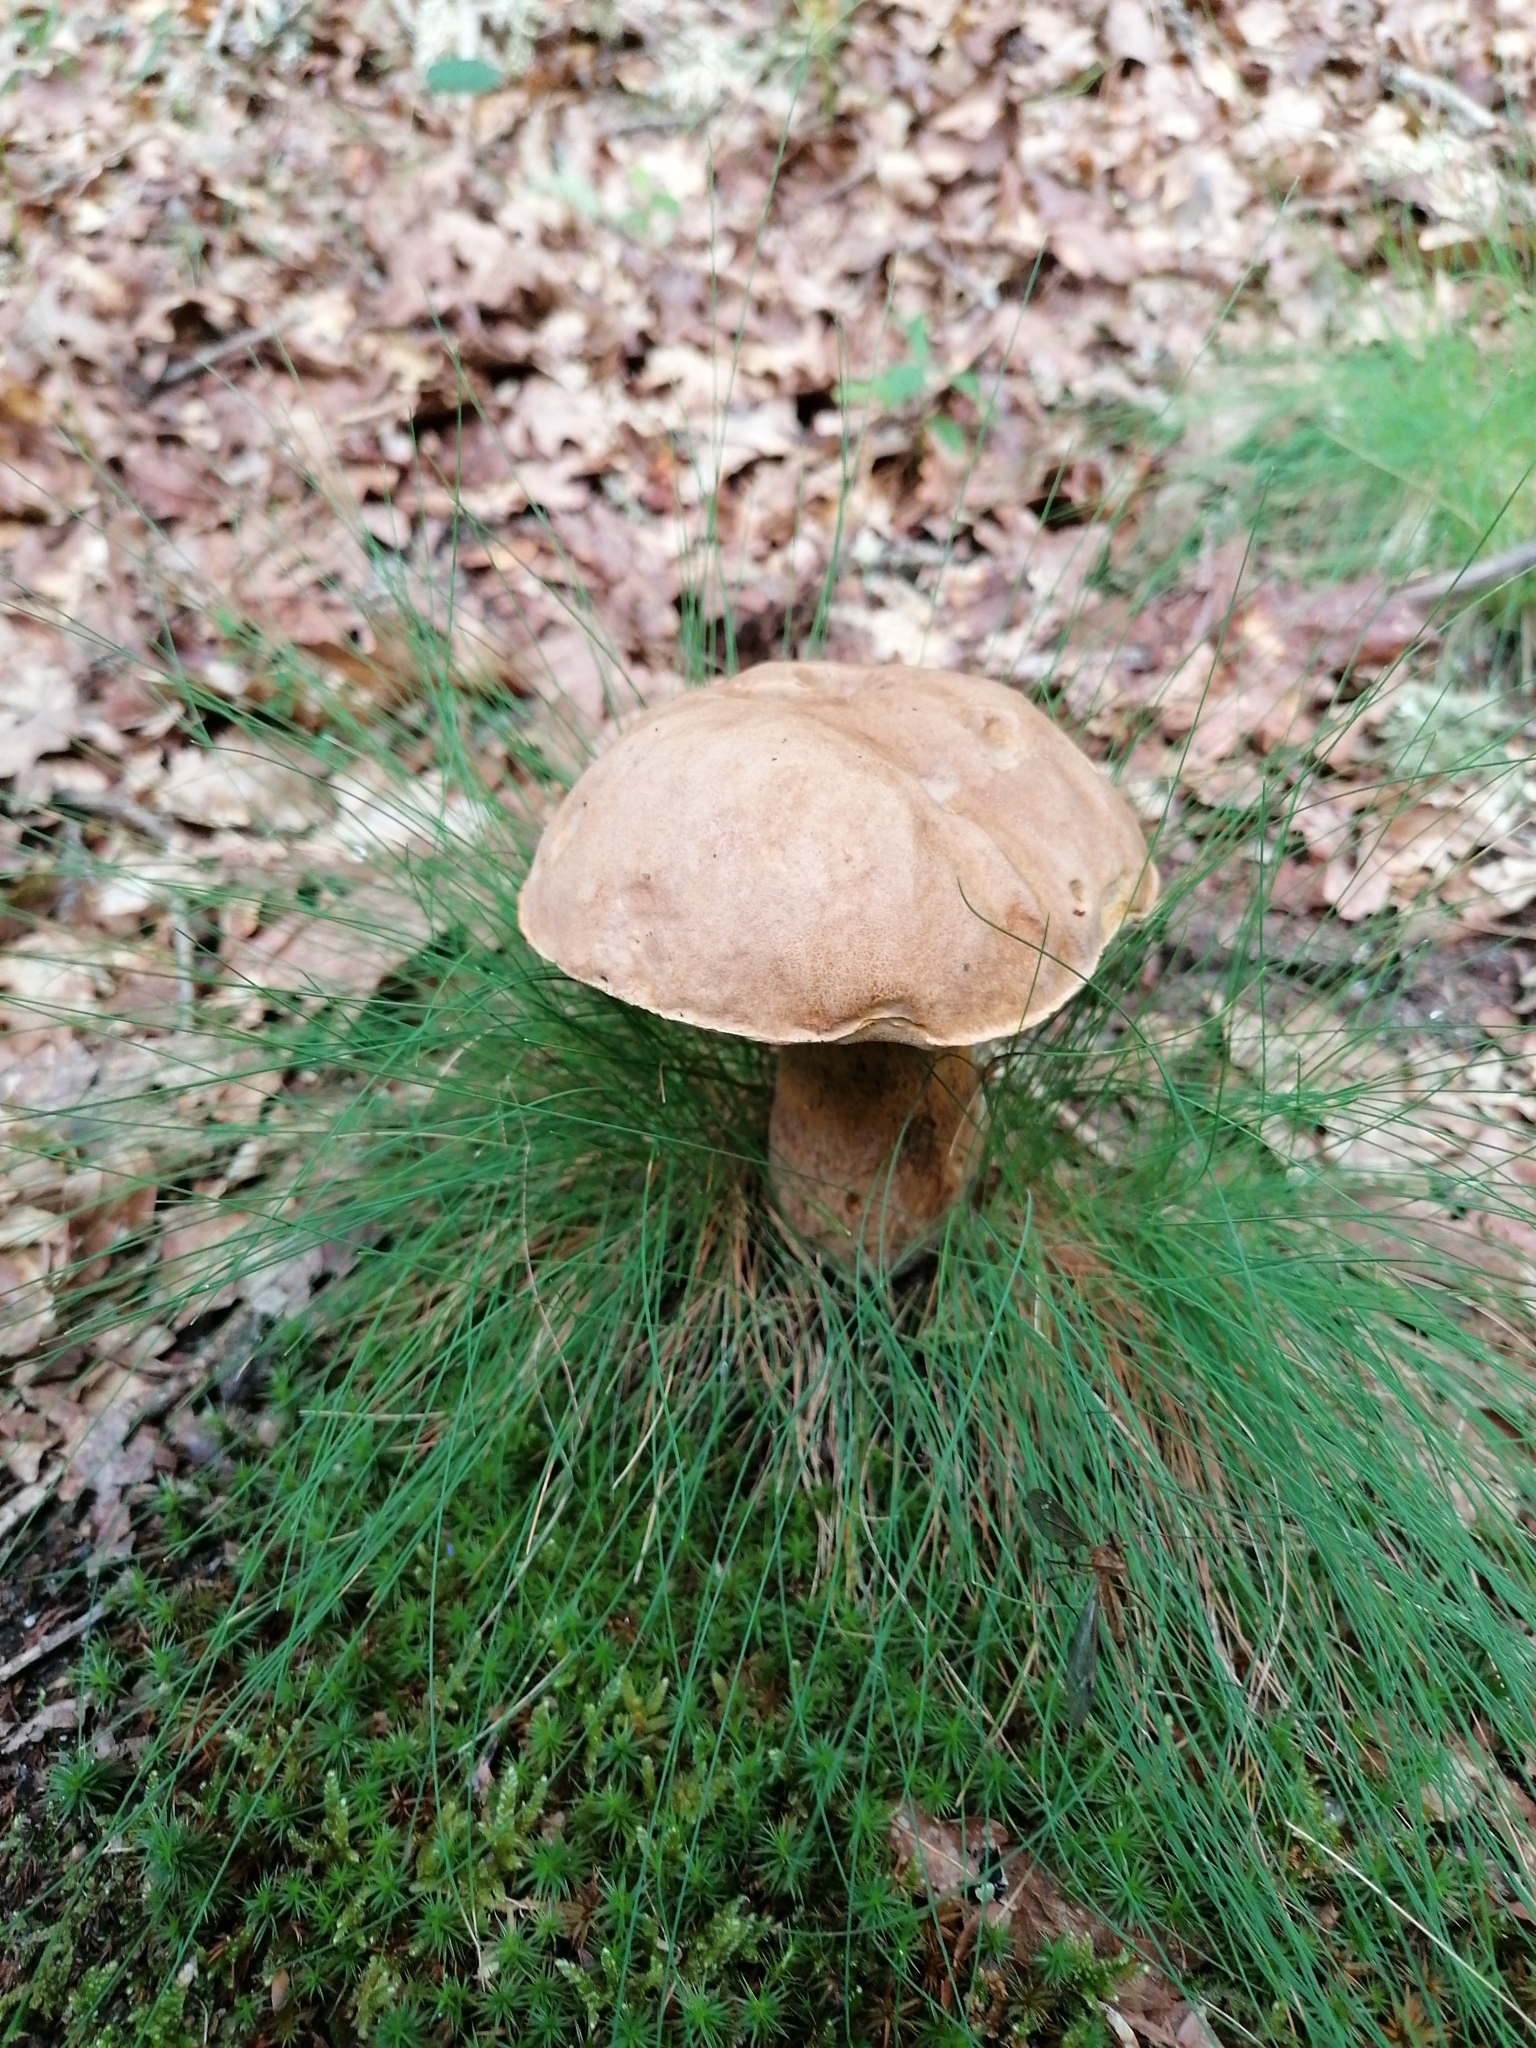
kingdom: Fungi
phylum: Basidiomycota
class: Agaricomycetes
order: Boletales
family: Boletaceae
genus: Boletus
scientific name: Boletus reticulatus
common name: Summer bolete
